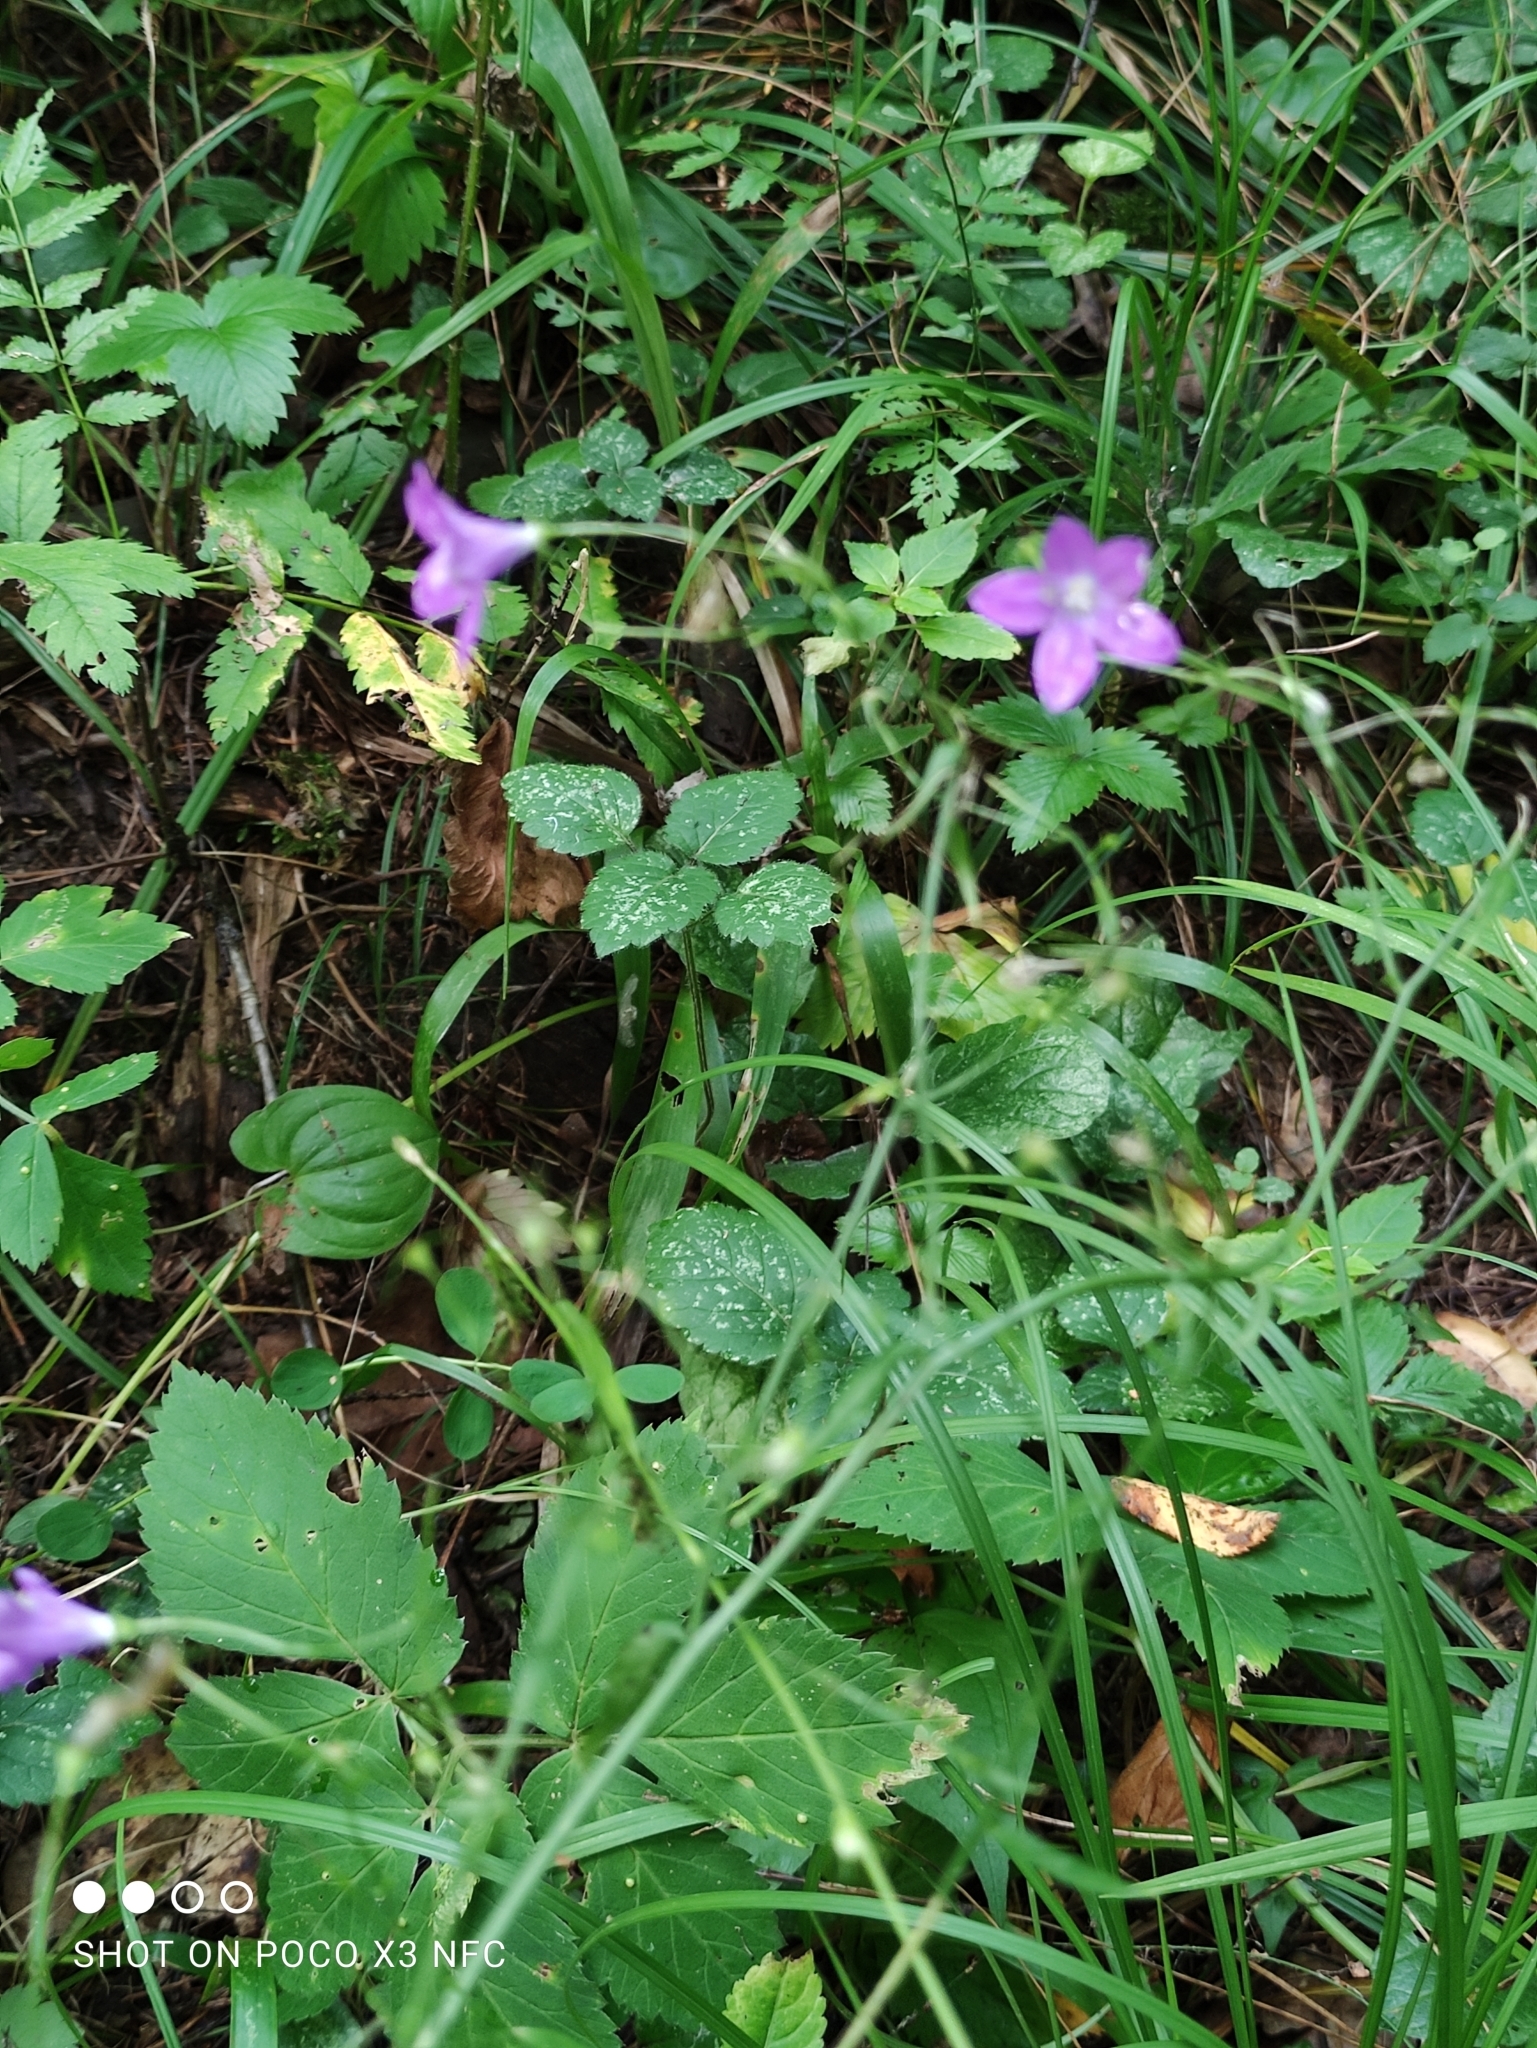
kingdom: Plantae
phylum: Tracheophyta
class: Magnoliopsida
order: Asterales
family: Campanulaceae
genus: Campanula
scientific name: Campanula patula
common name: Spreading bellflower
